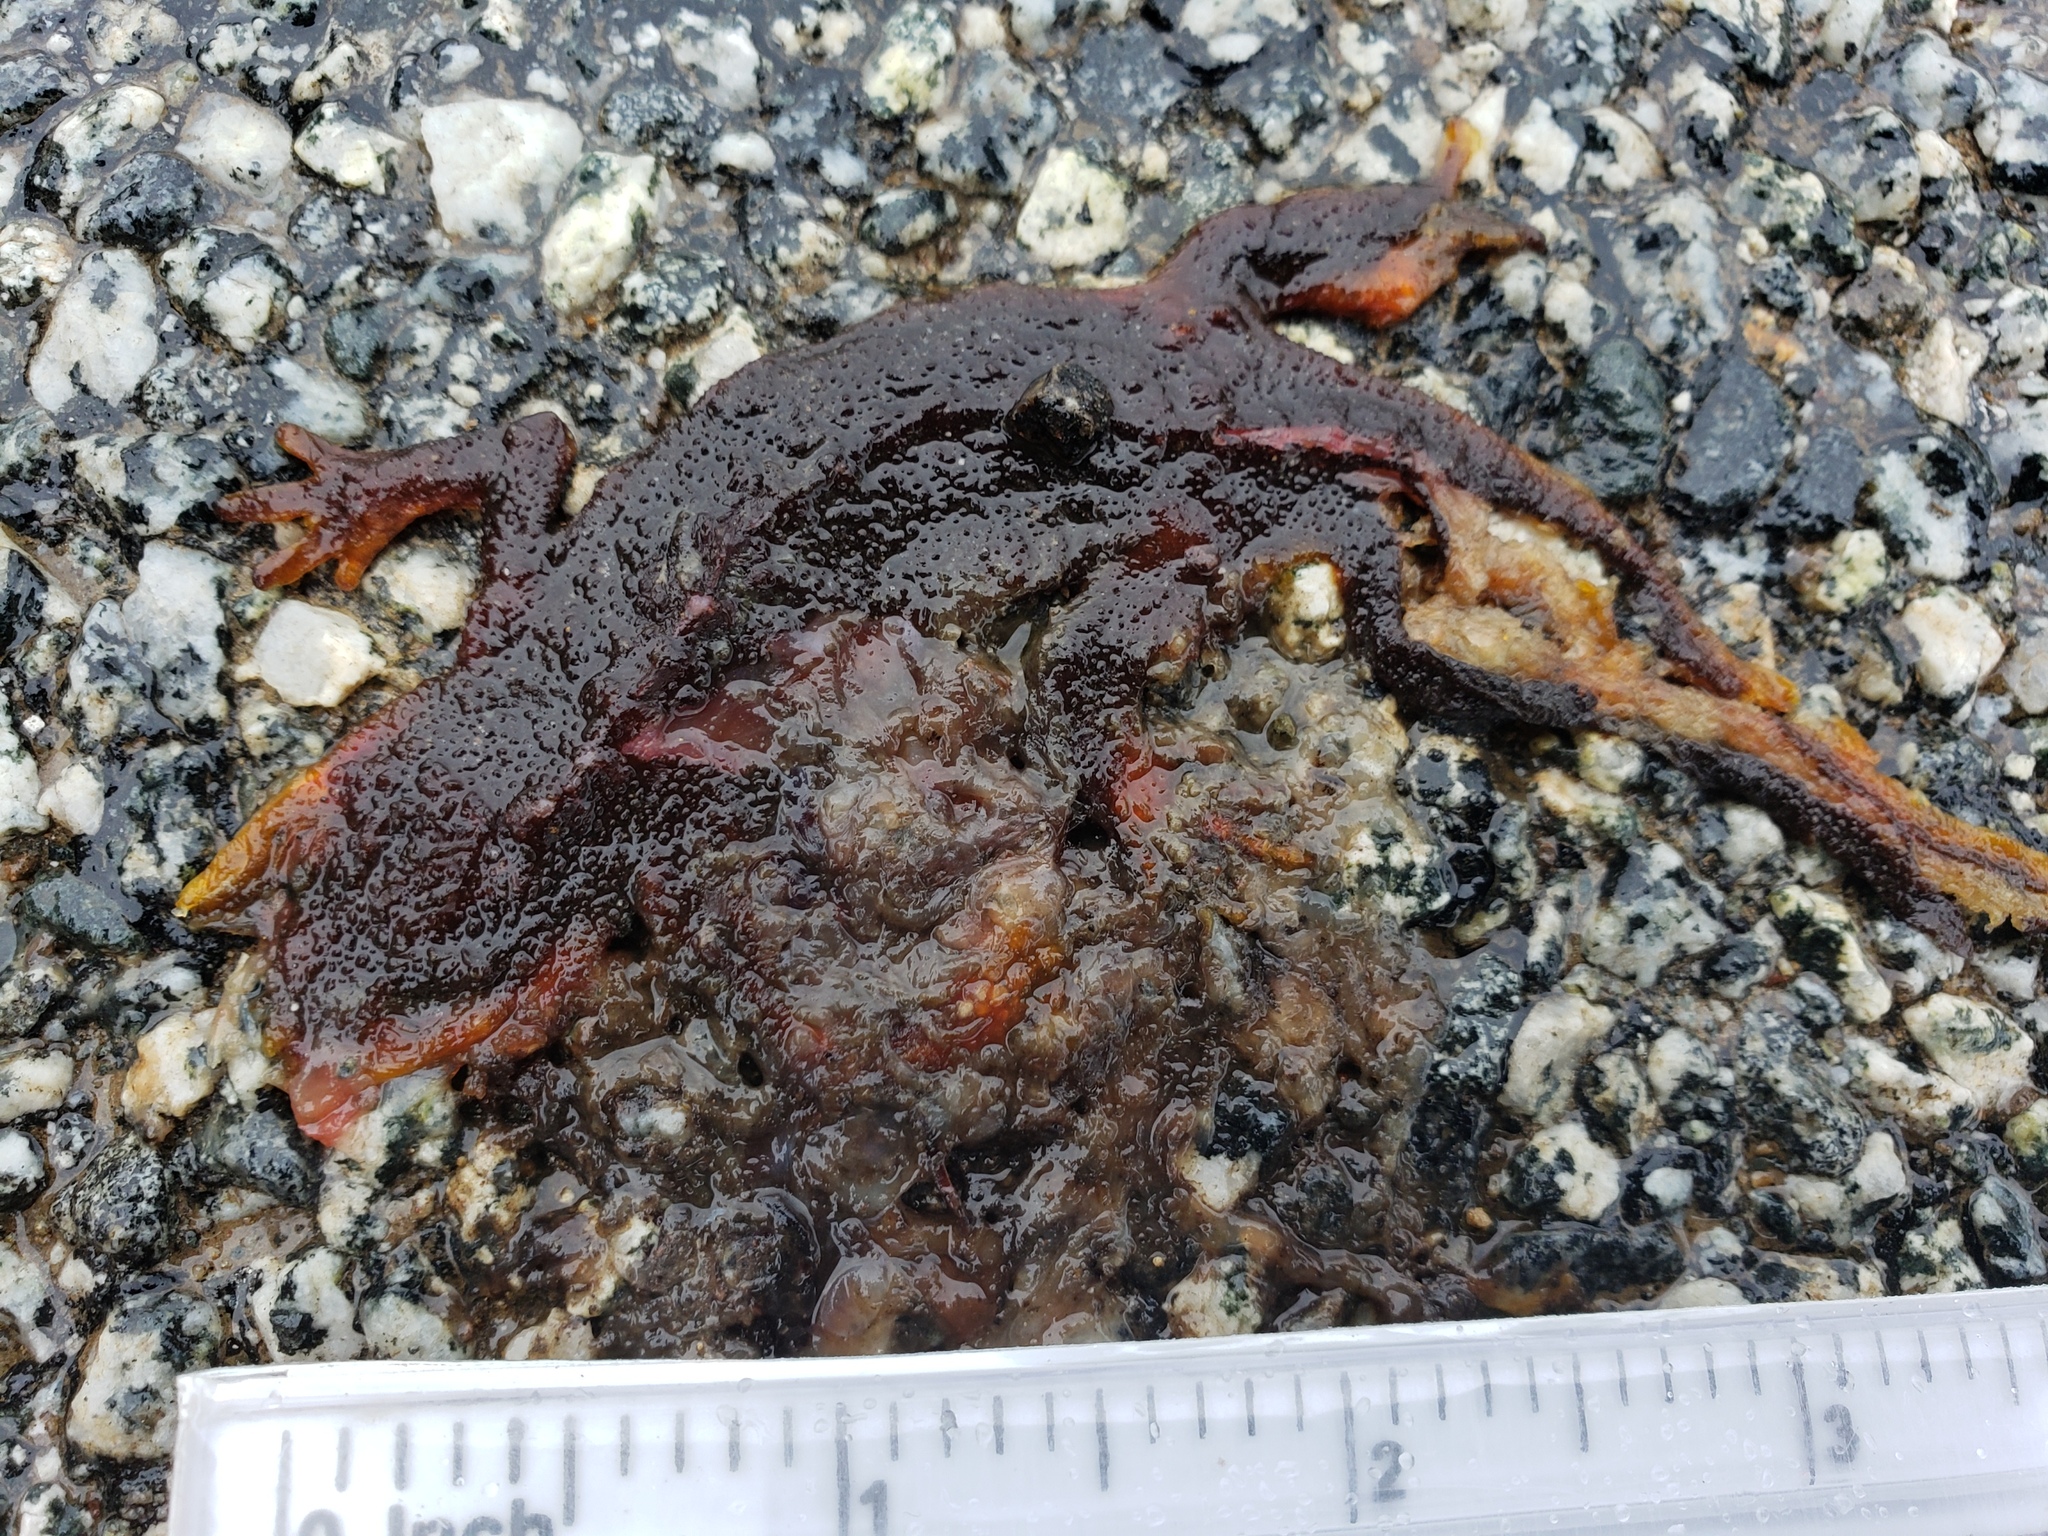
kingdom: Animalia
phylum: Chordata
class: Amphibia
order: Caudata
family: Salamandridae
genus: Taricha
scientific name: Taricha
